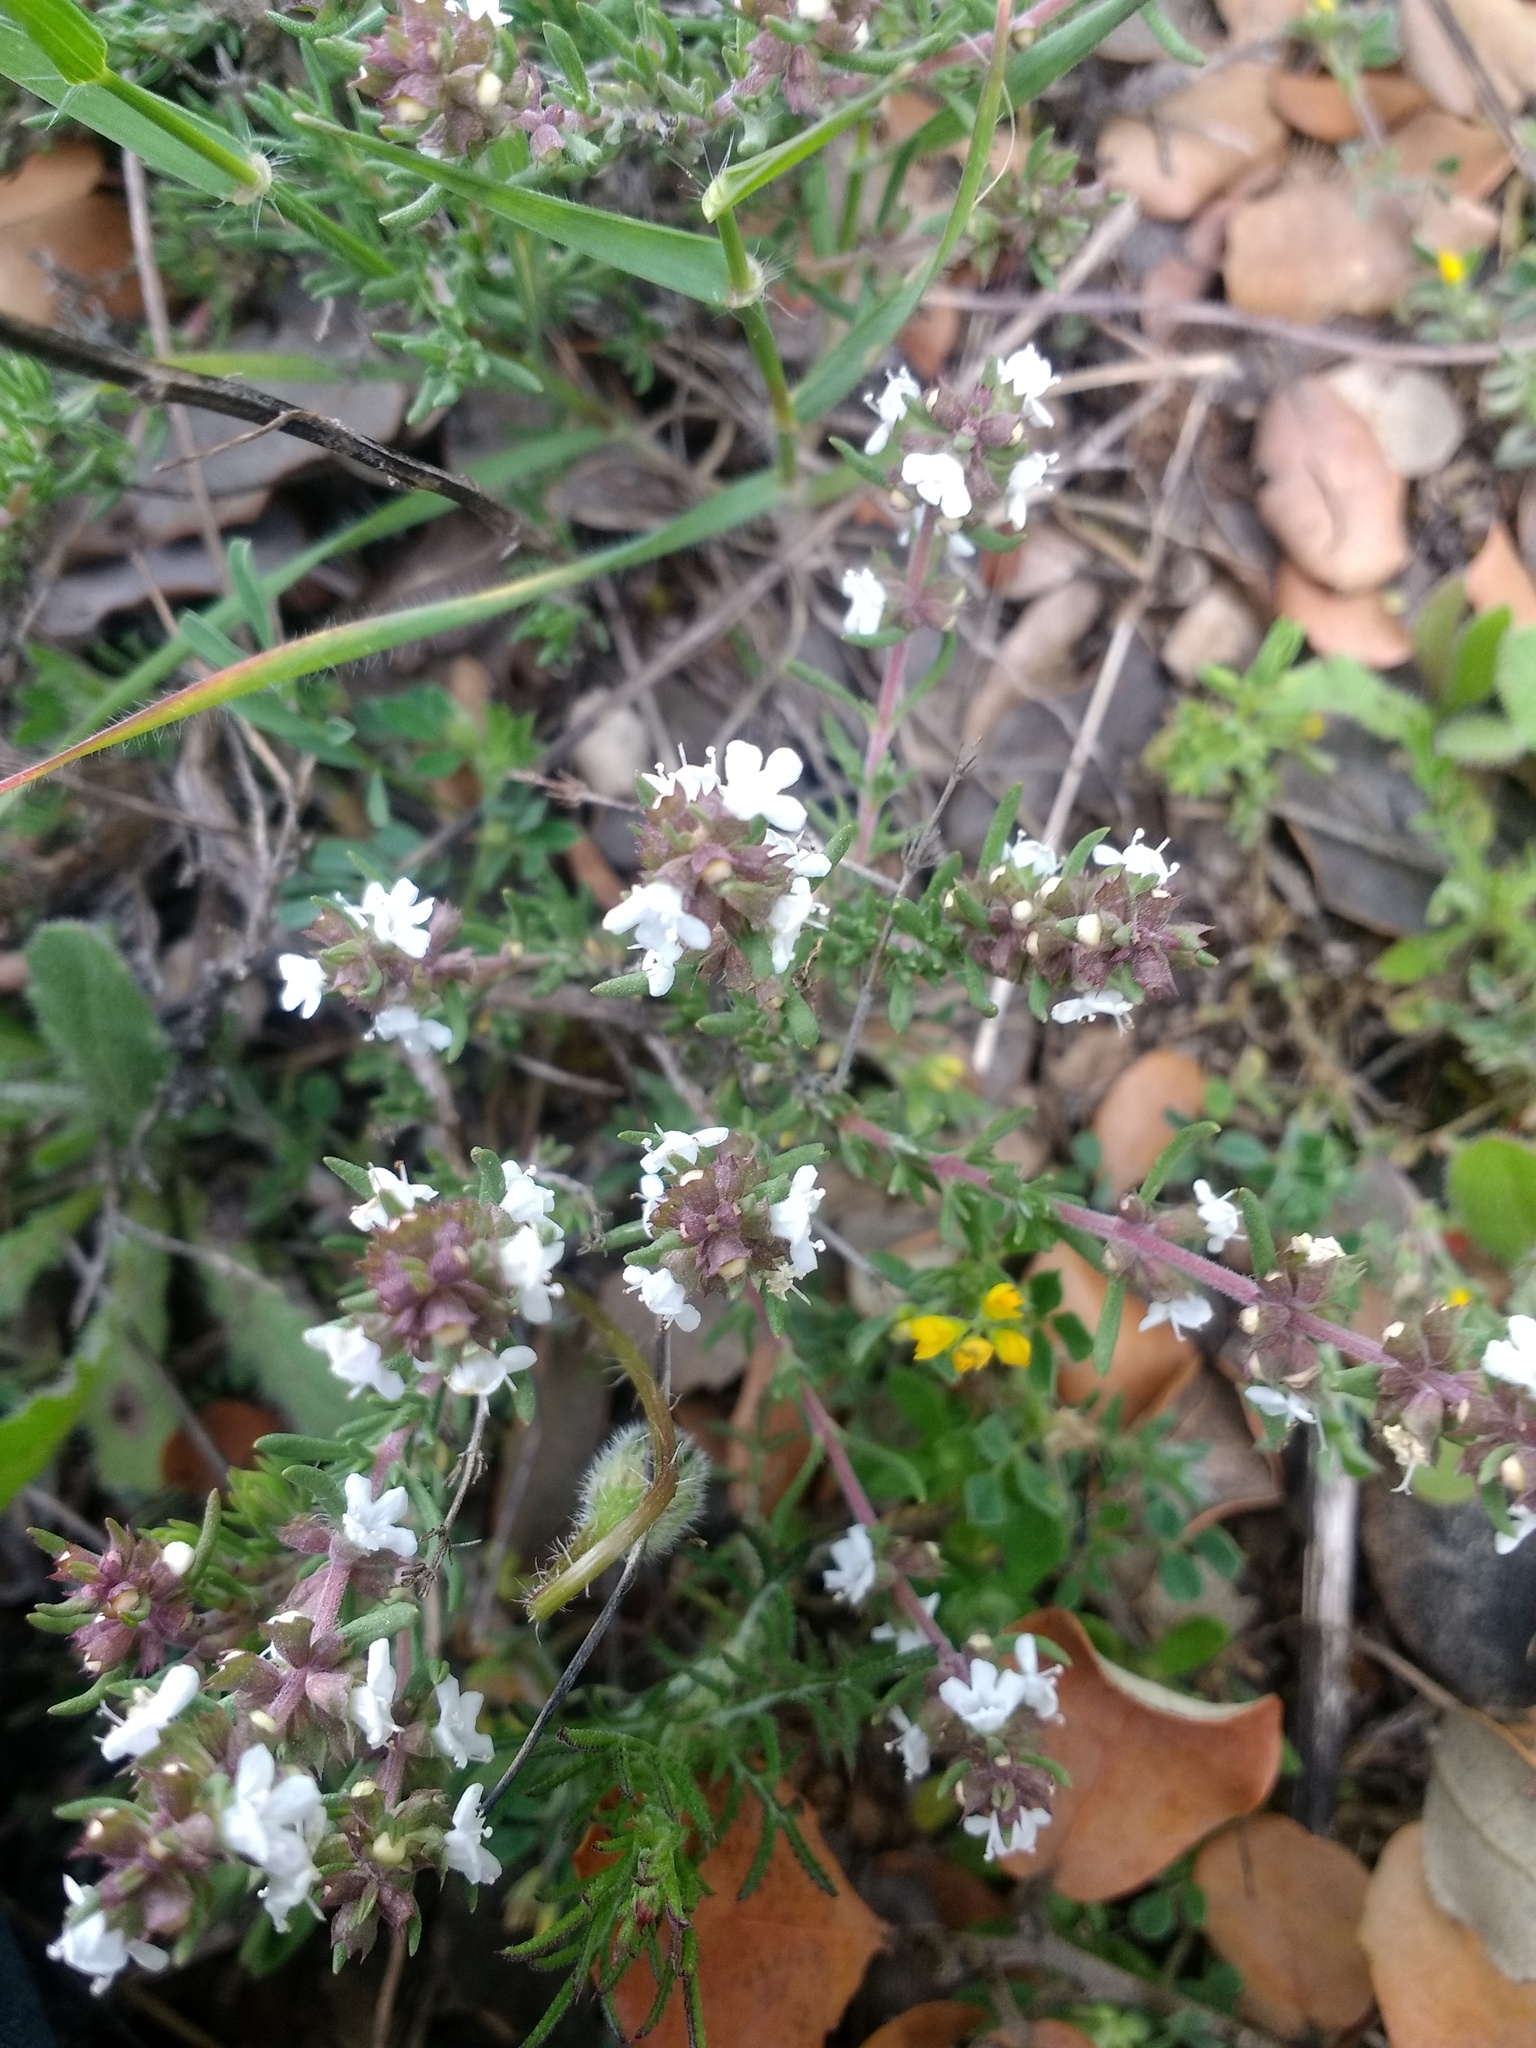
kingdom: Plantae
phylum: Tracheophyta
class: Magnoliopsida
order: Lamiales
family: Lamiaceae
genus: Thymus
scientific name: Thymus zygis
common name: White thyme
